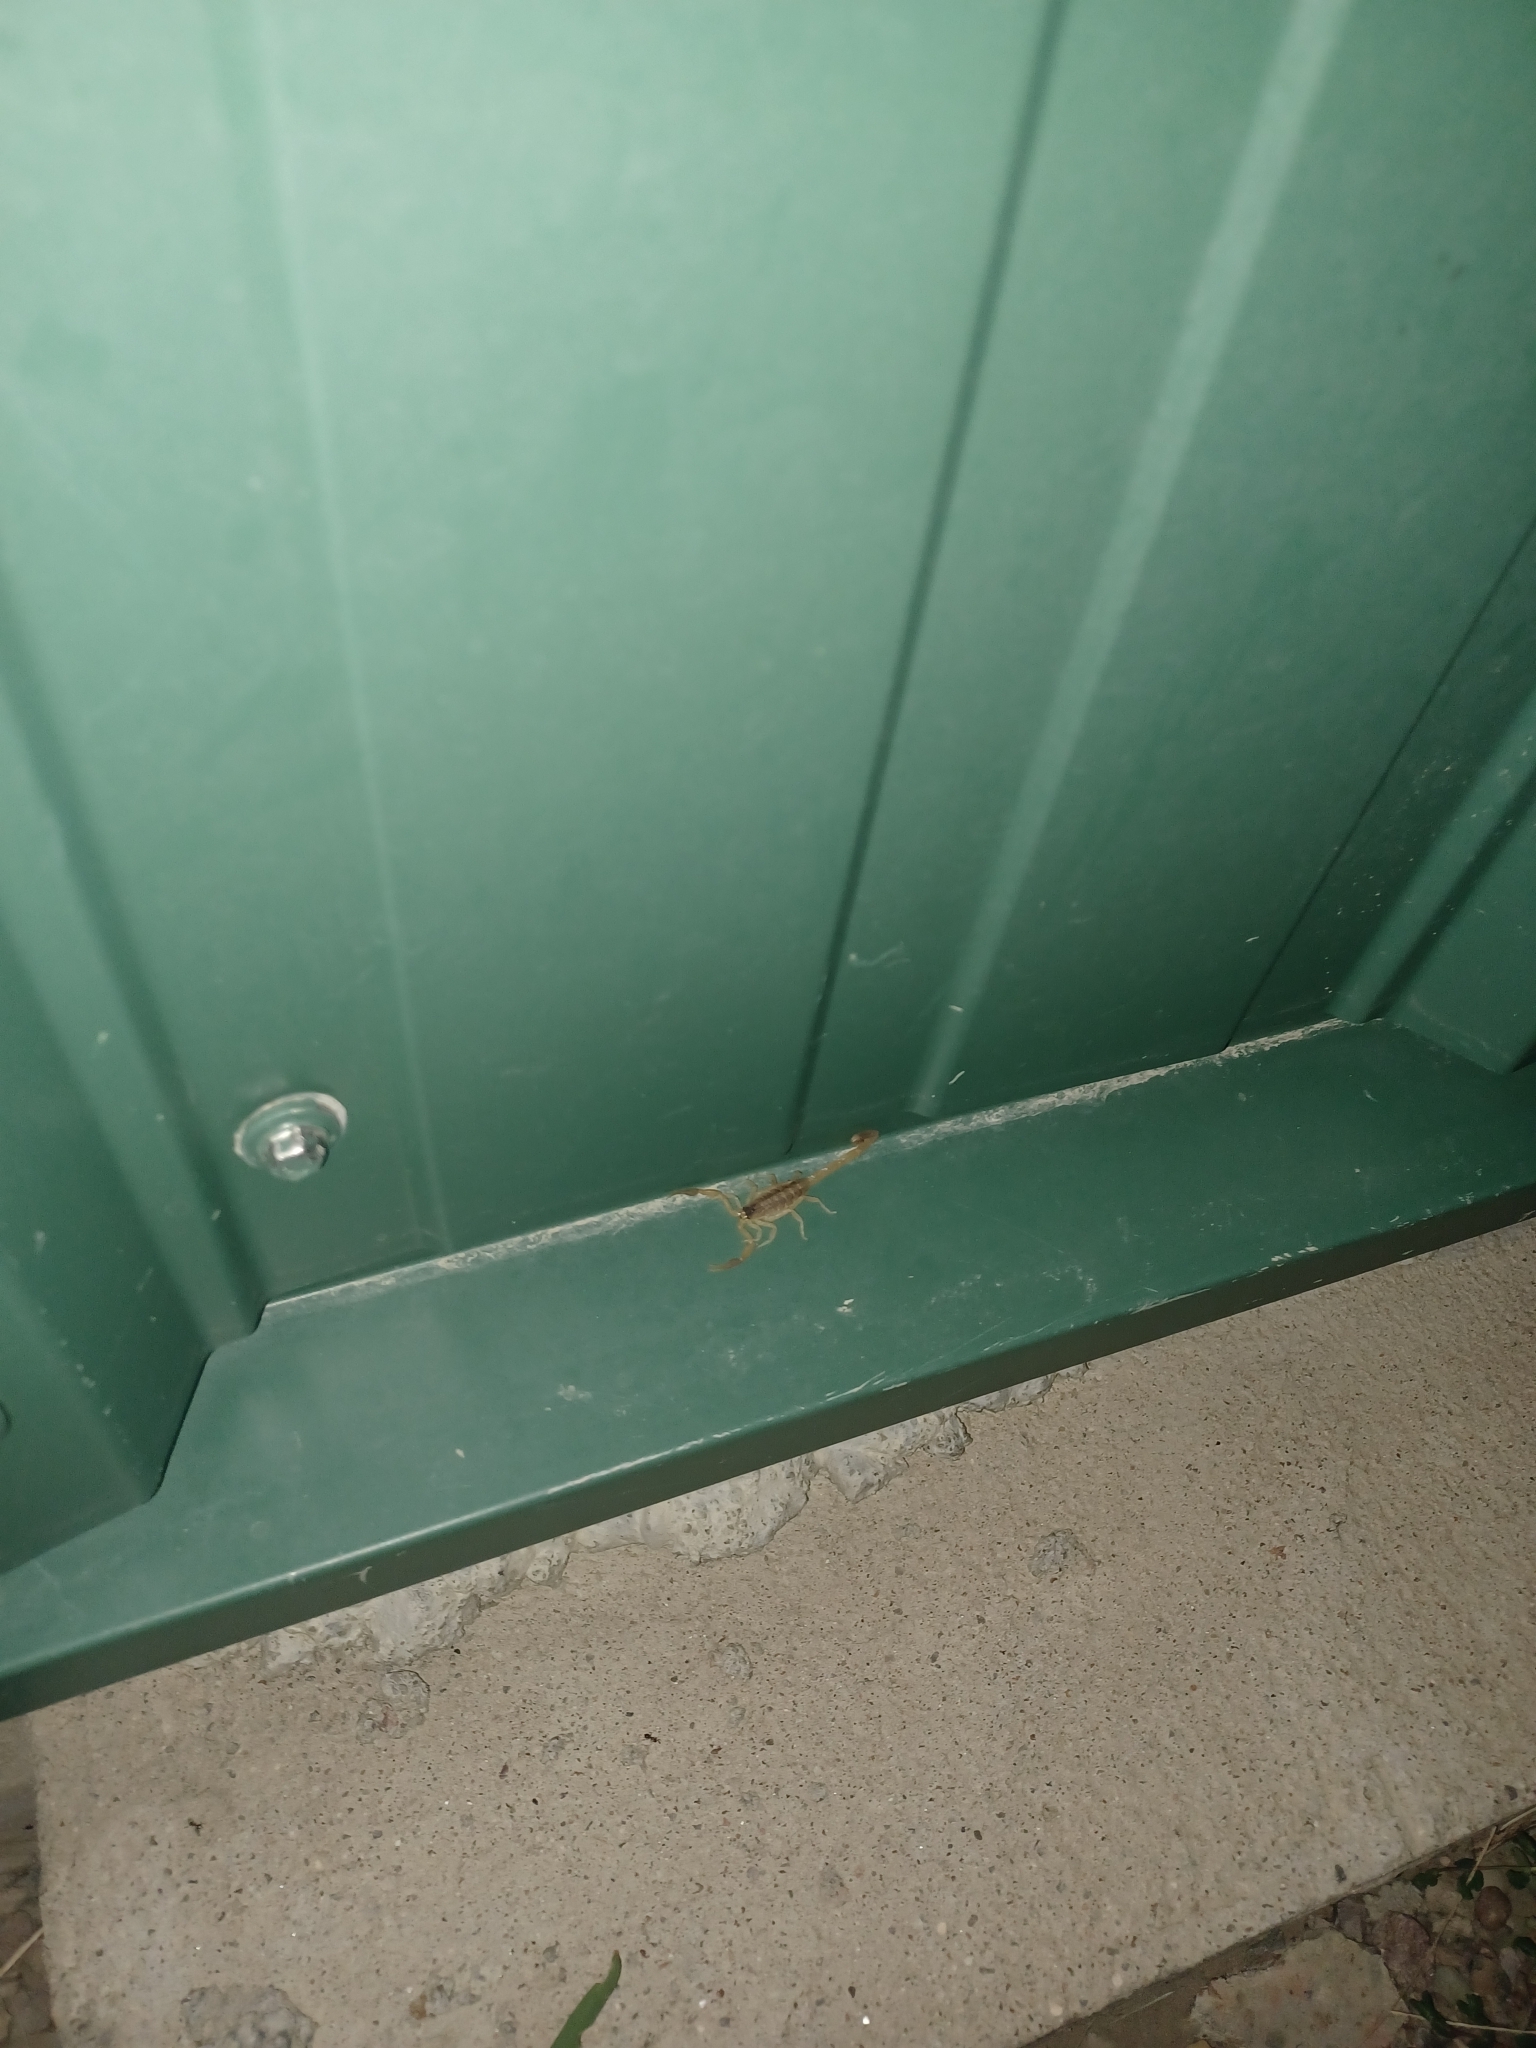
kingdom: Animalia
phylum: Arthropoda
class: Arachnida
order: Scorpiones
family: Buthidae
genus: Centruroides
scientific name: Centruroides vittatus
